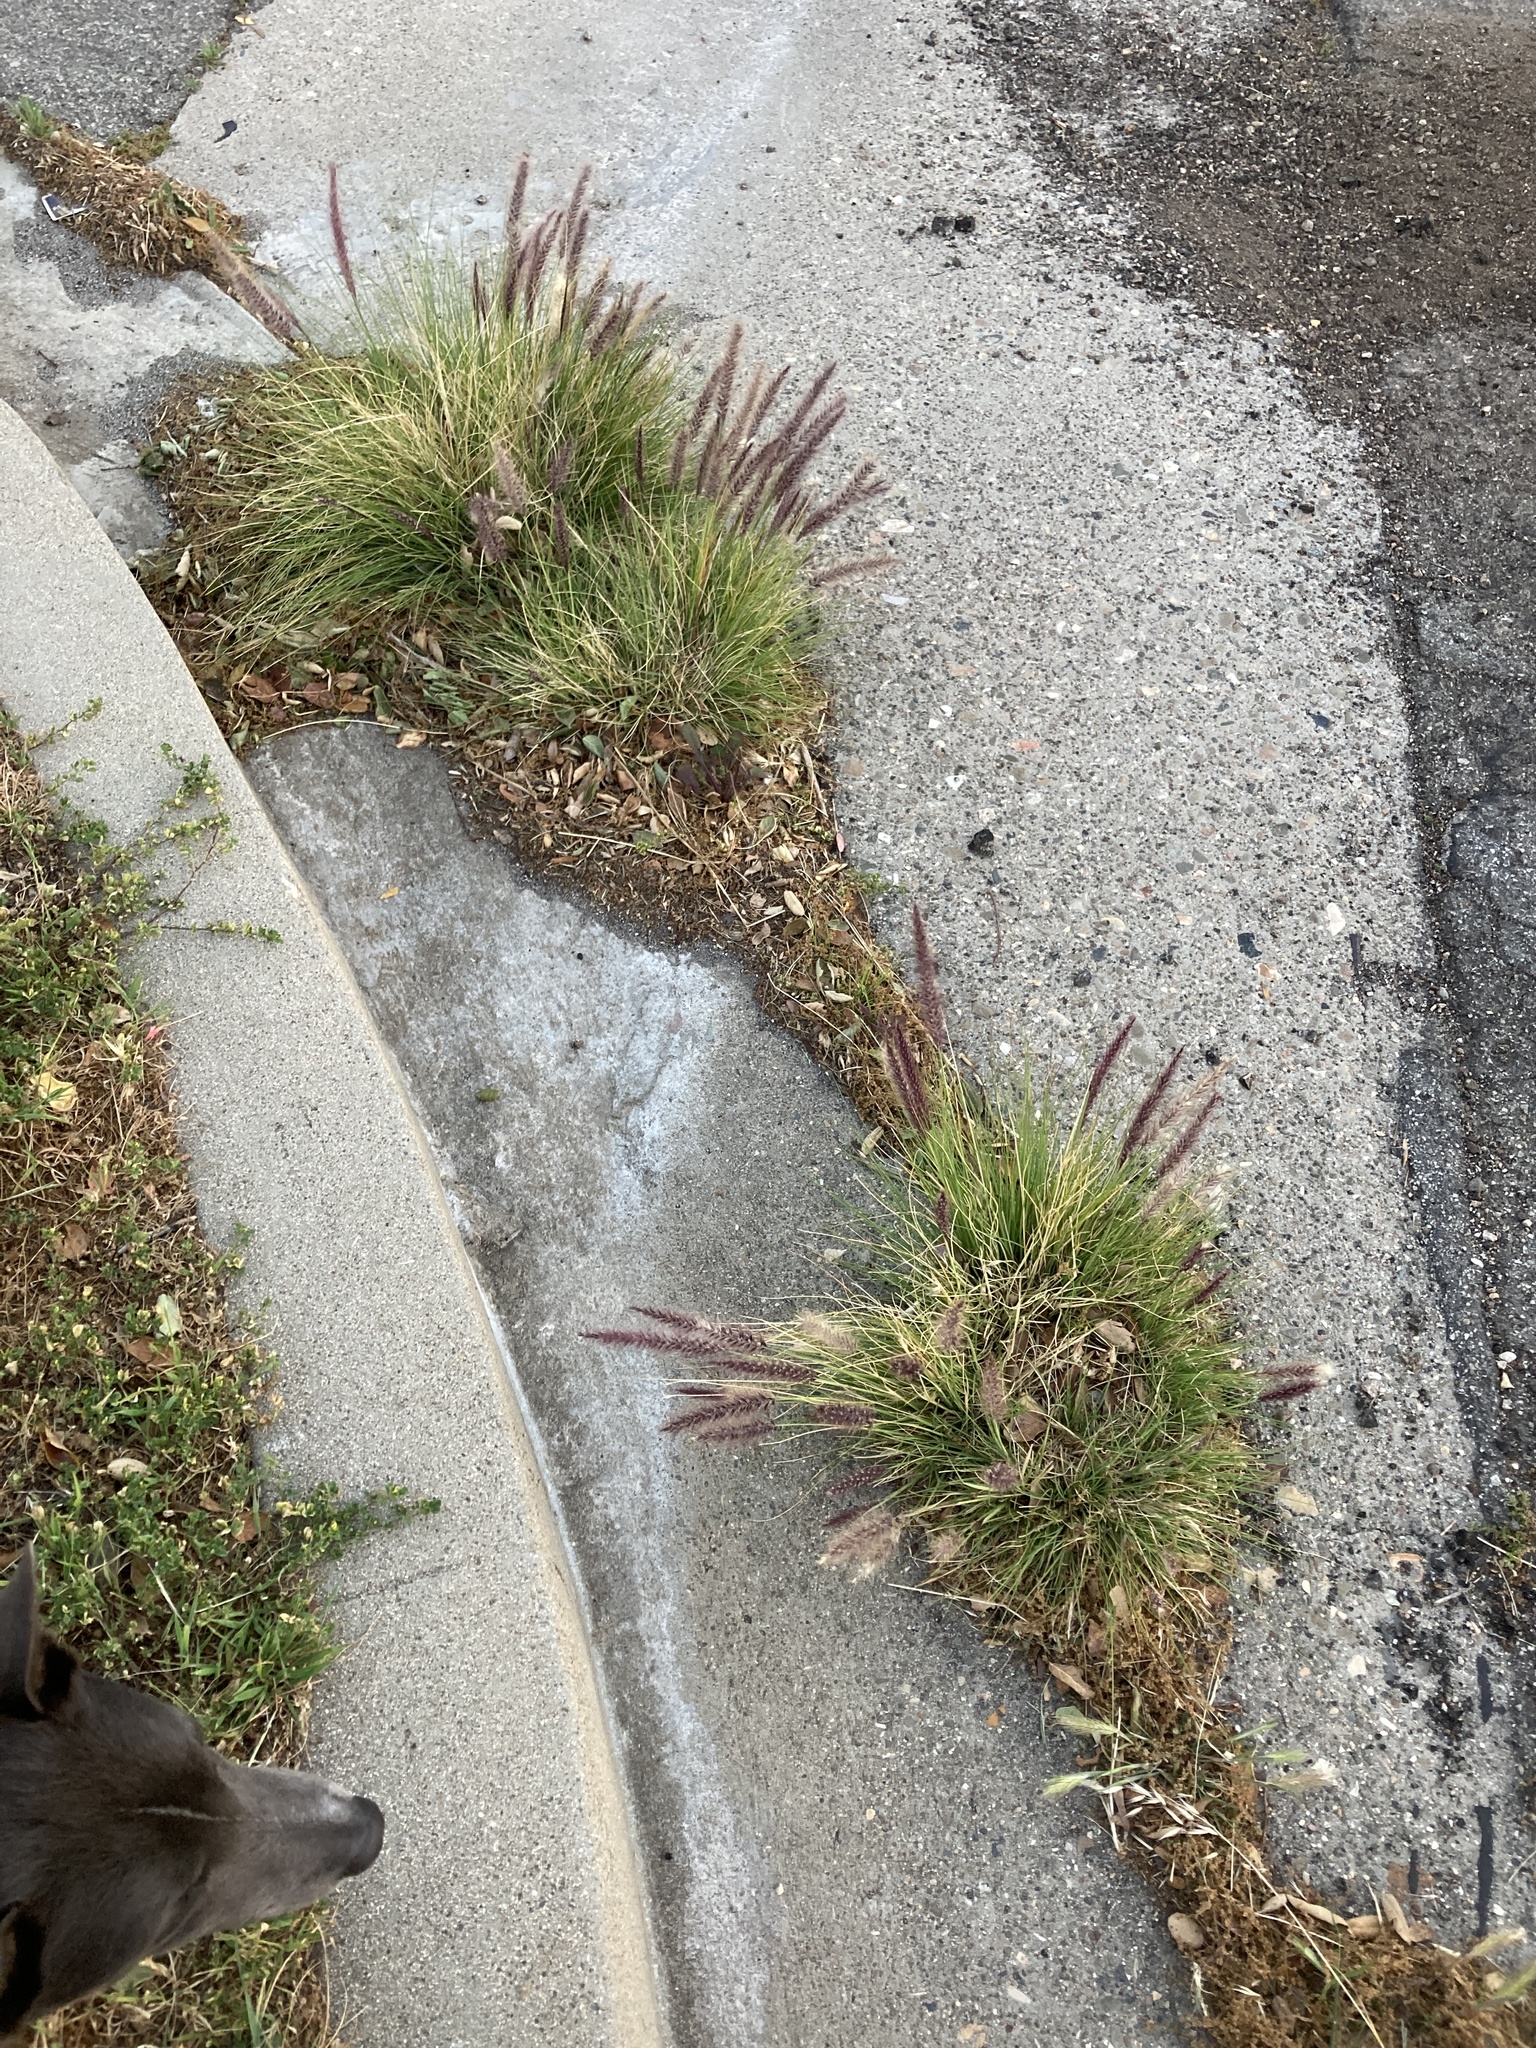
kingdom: Plantae
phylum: Tracheophyta
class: Liliopsida
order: Poales
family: Poaceae
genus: Cenchrus
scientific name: Cenchrus setaceus
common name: Crimson fountaingrass
